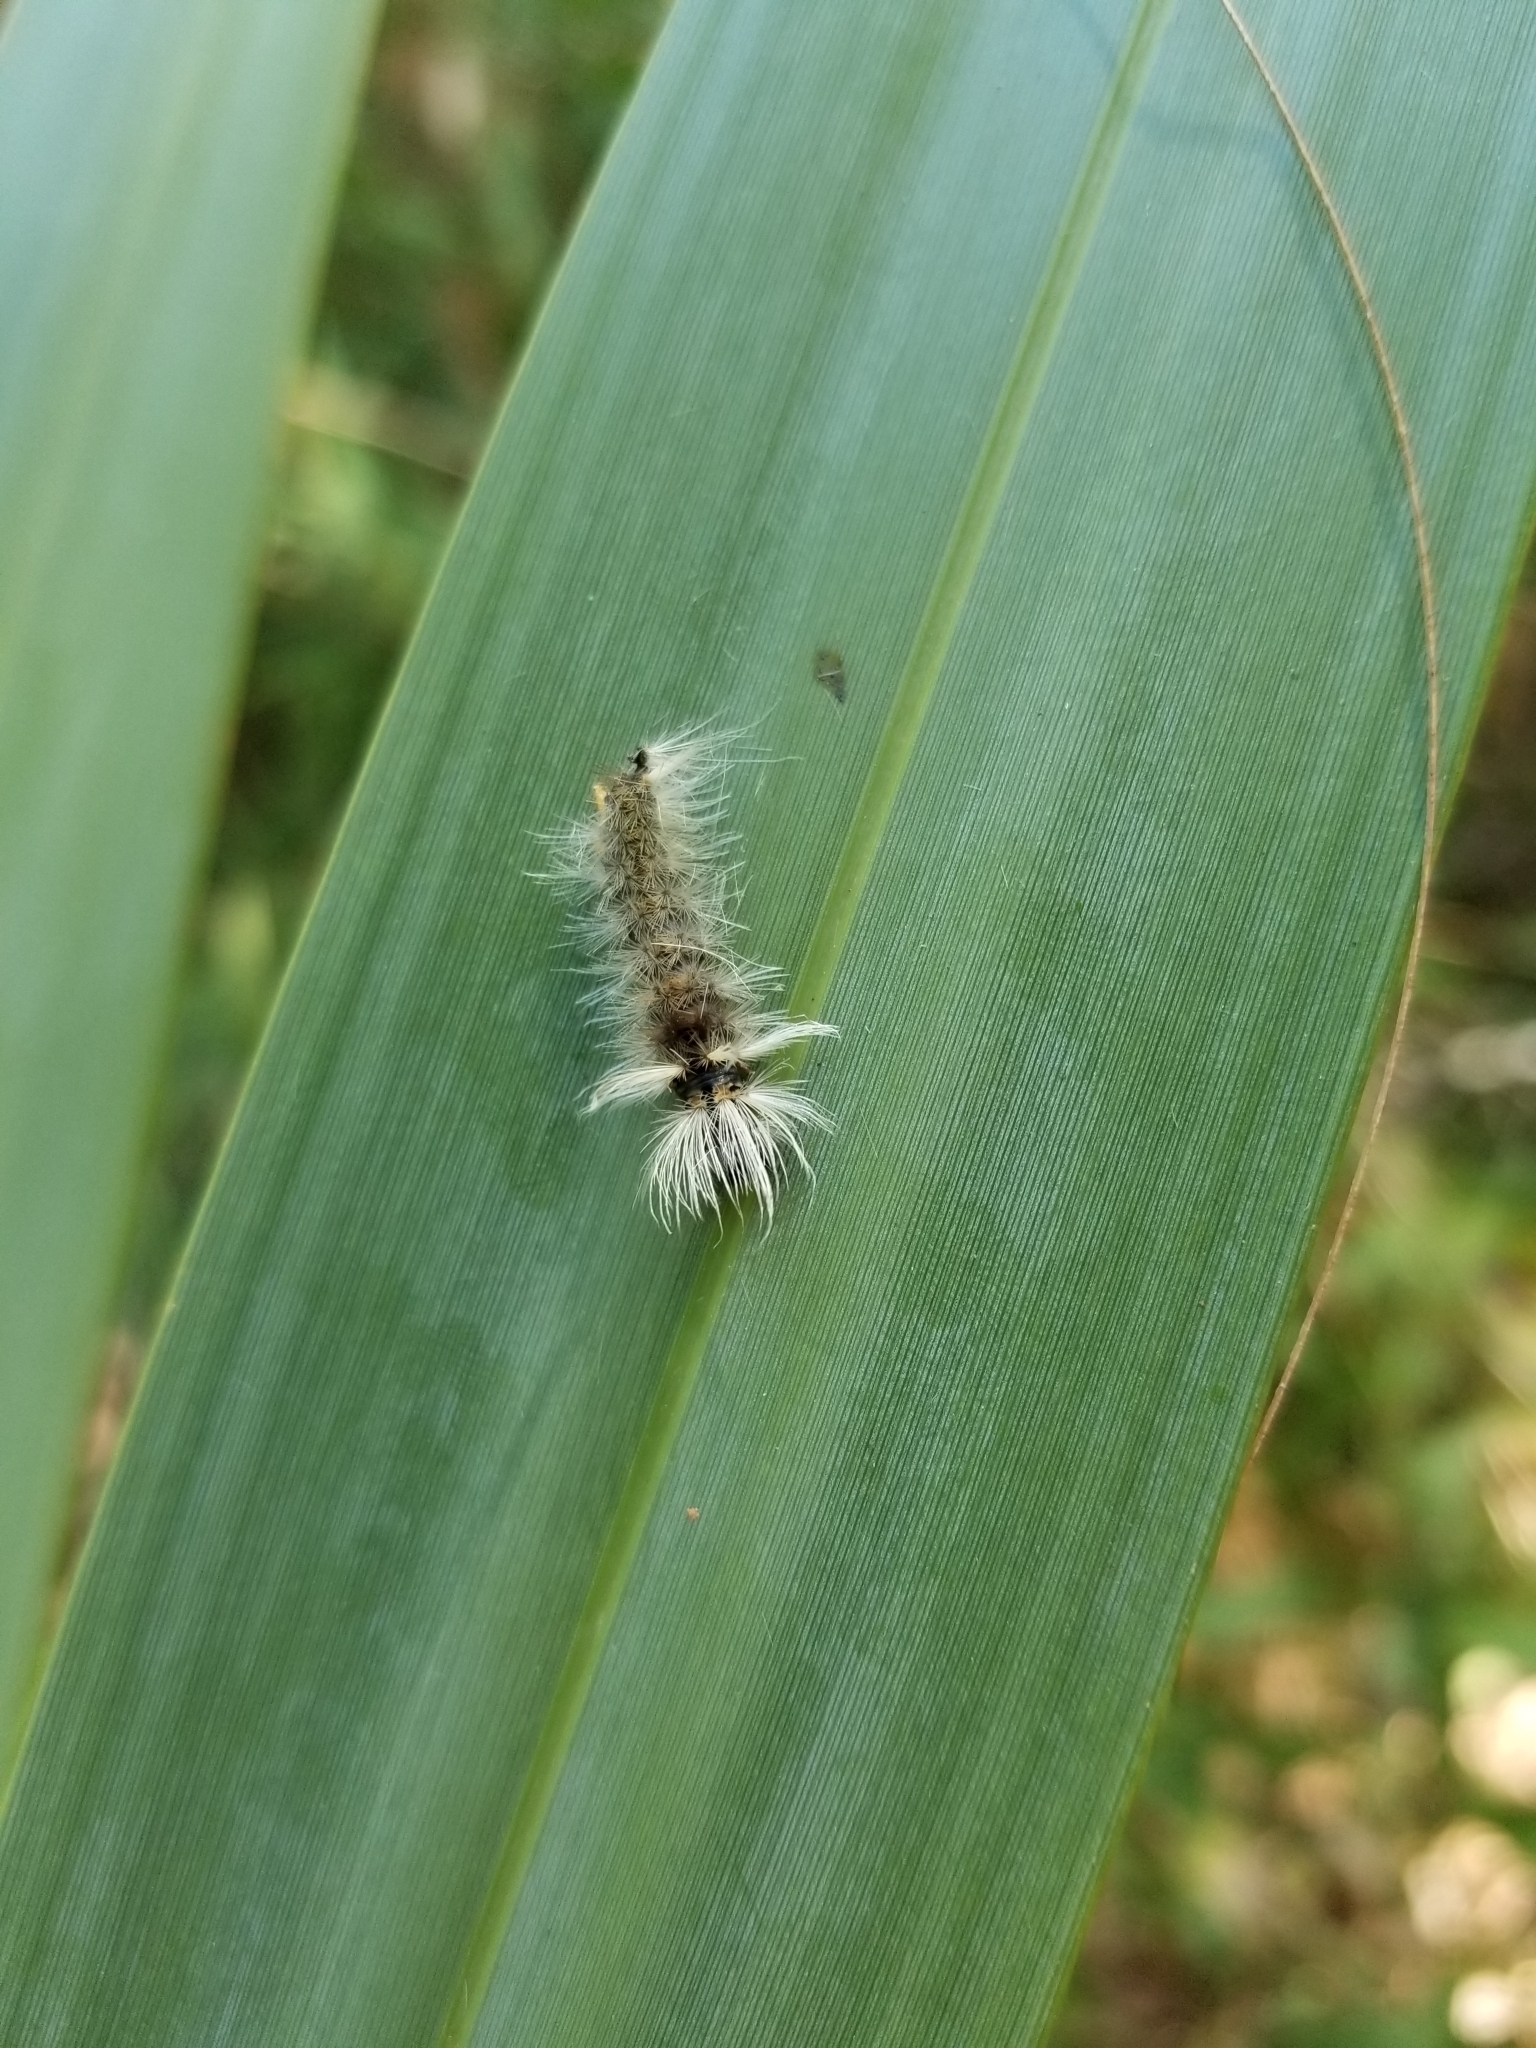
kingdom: Animalia
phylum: Arthropoda
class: Insecta
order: Lepidoptera
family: Erebidae
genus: Halysidota
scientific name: Halysidota schausi
